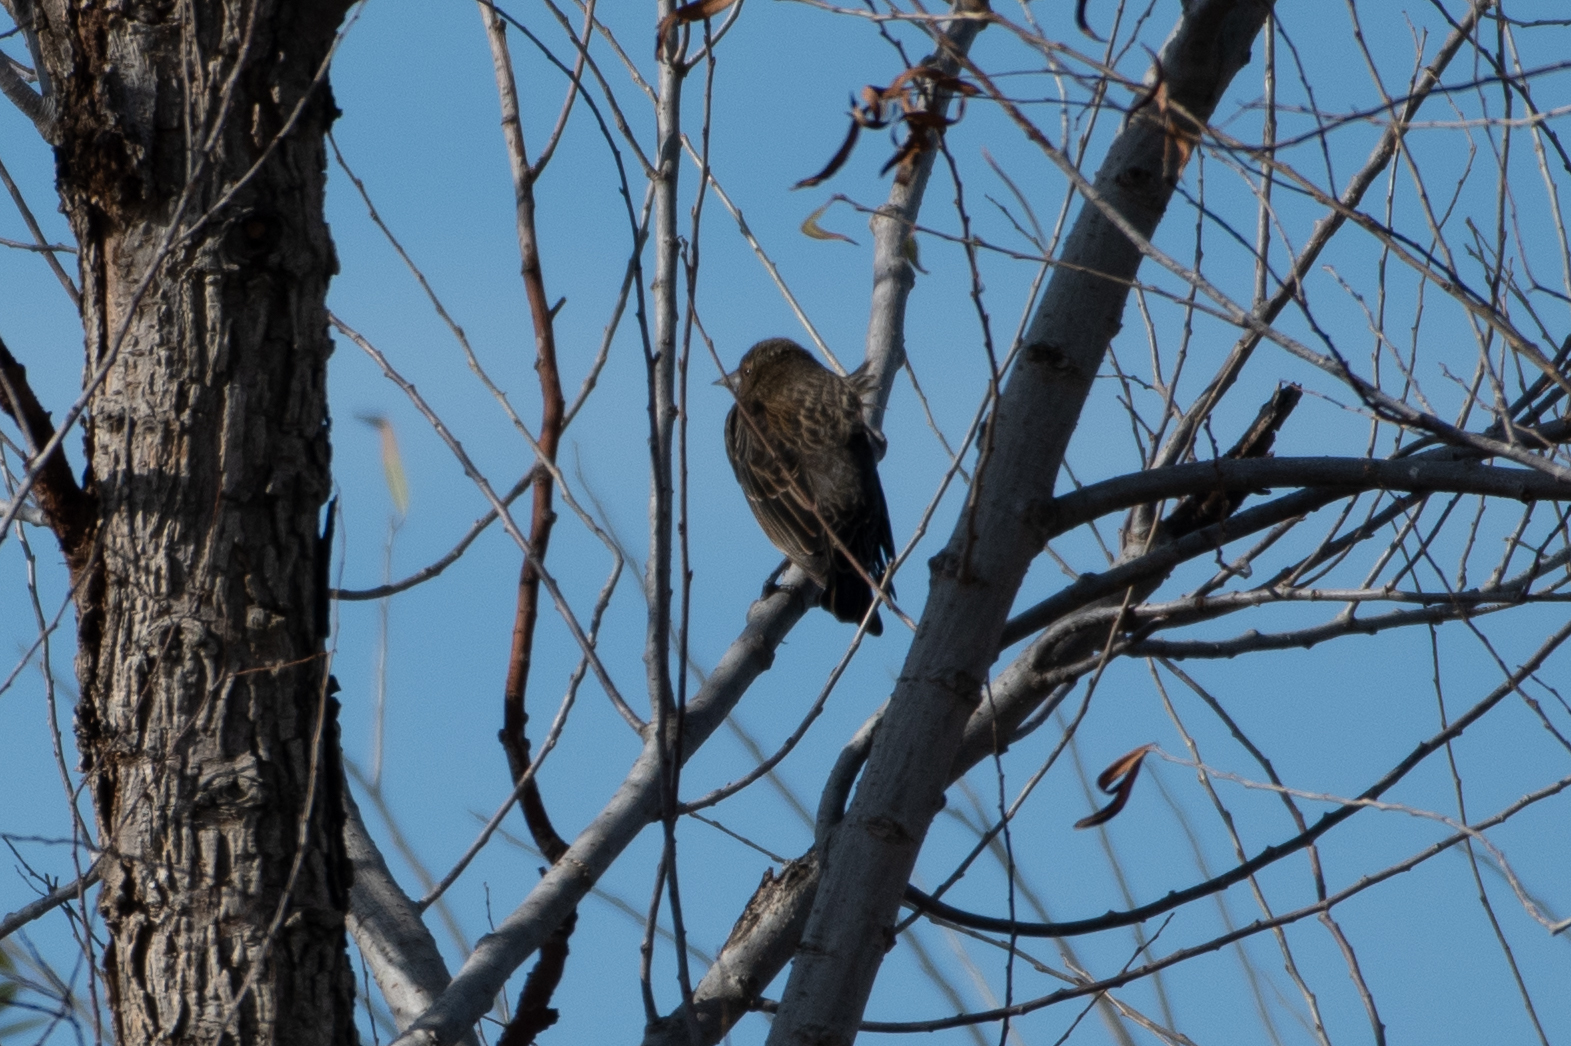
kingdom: Animalia
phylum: Chordata
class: Aves
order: Passeriformes
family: Icteridae
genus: Agelaius
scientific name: Agelaius phoeniceus
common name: Red-winged blackbird
